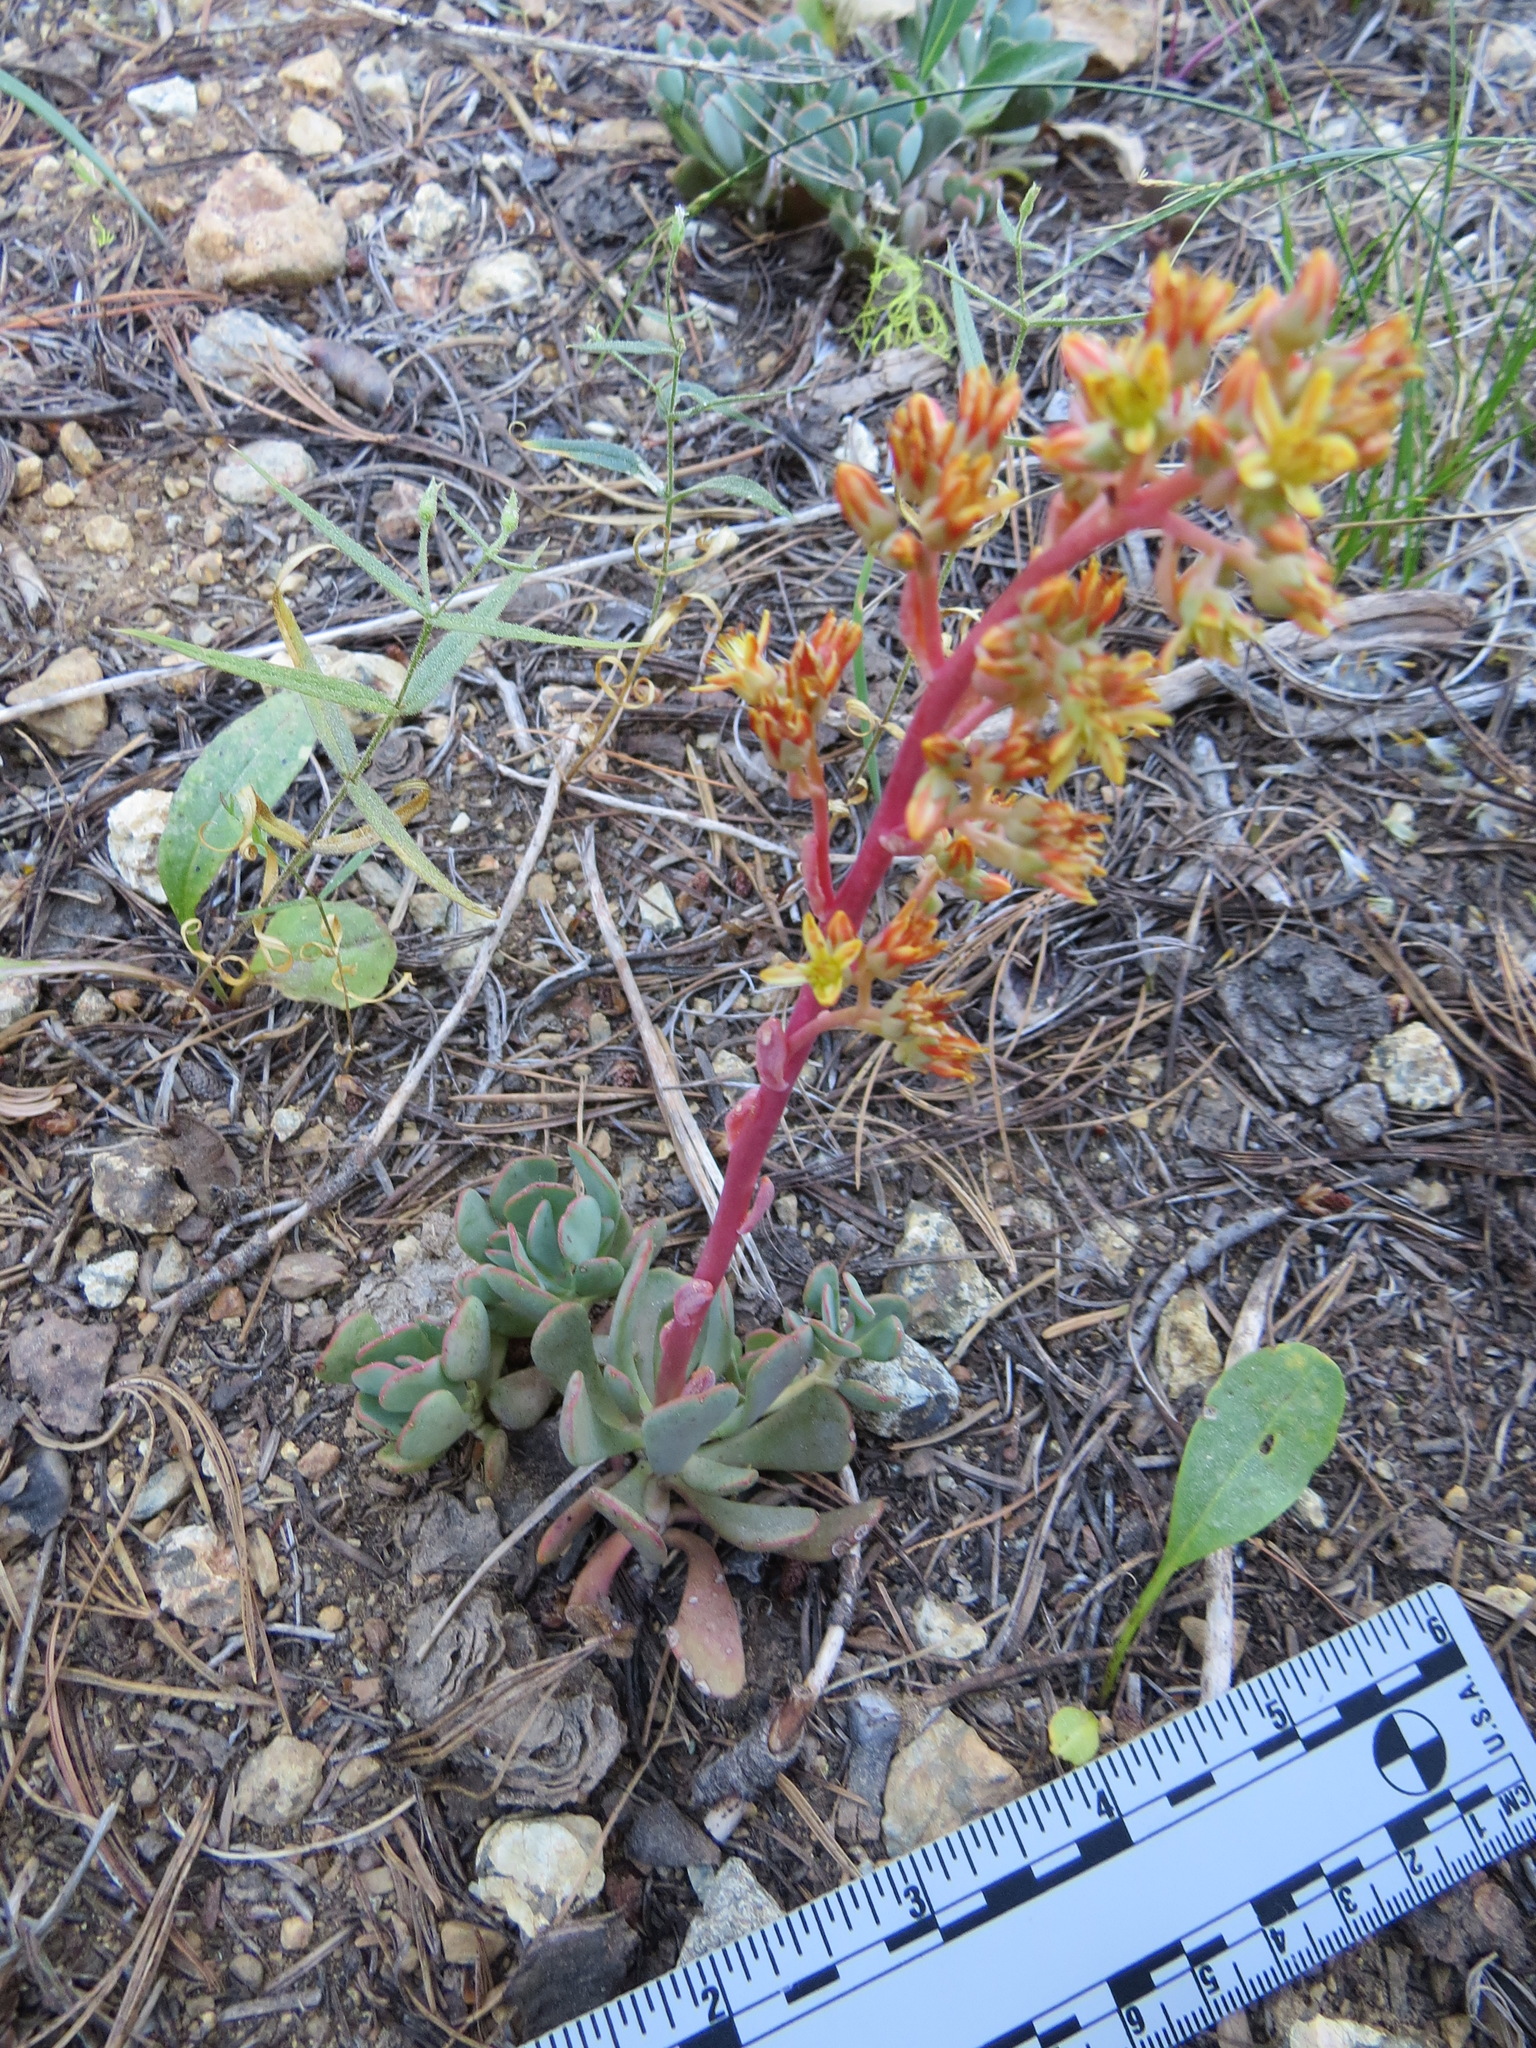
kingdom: Plantae
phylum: Tracheophyta
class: Magnoliopsida
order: Saxifragales
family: Crassulaceae
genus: Sedum
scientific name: Sedum obtusatum
